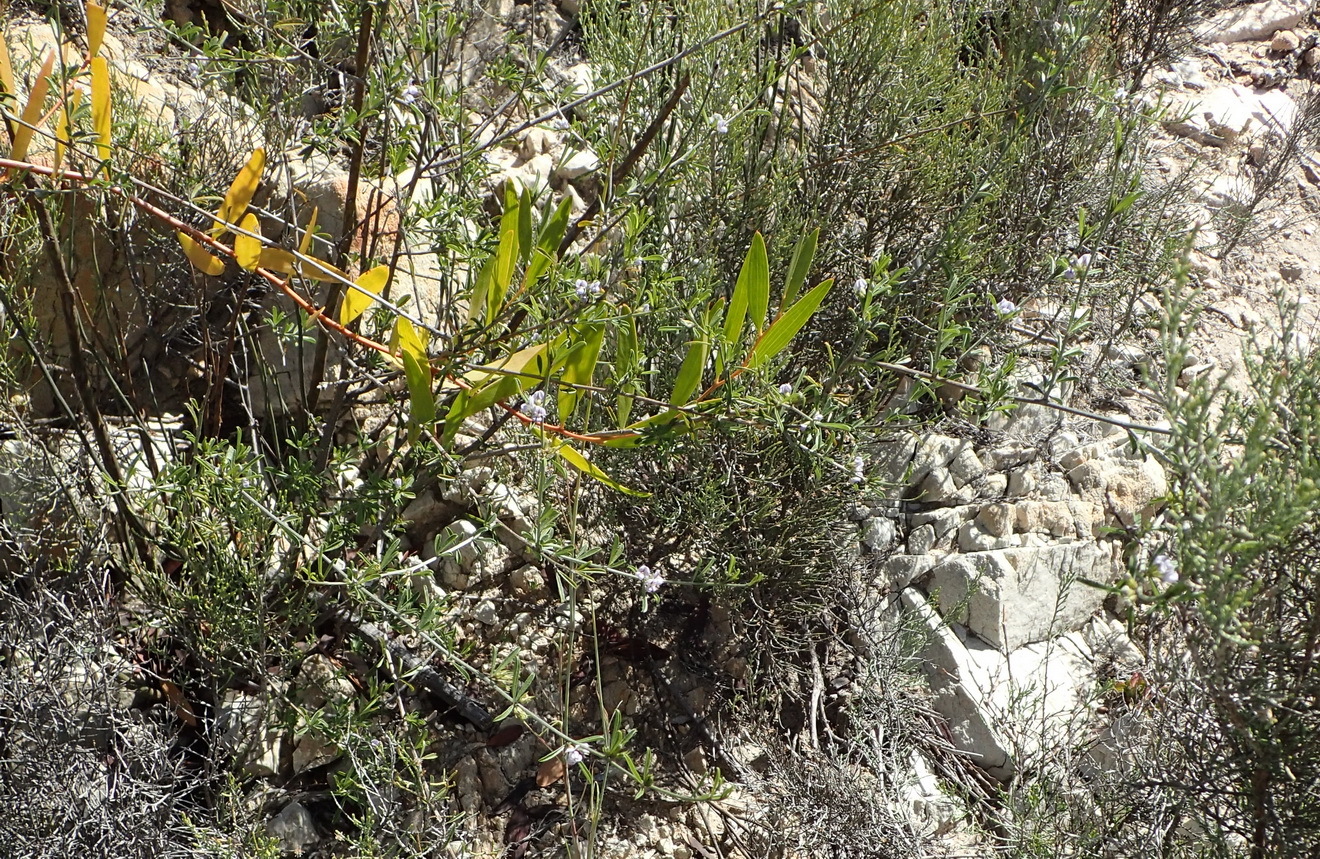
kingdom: Plantae
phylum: Tracheophyta
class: Magnoliopsida
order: Fabales
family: Fabaceae
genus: Psoralea
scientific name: Psoralea candicans
